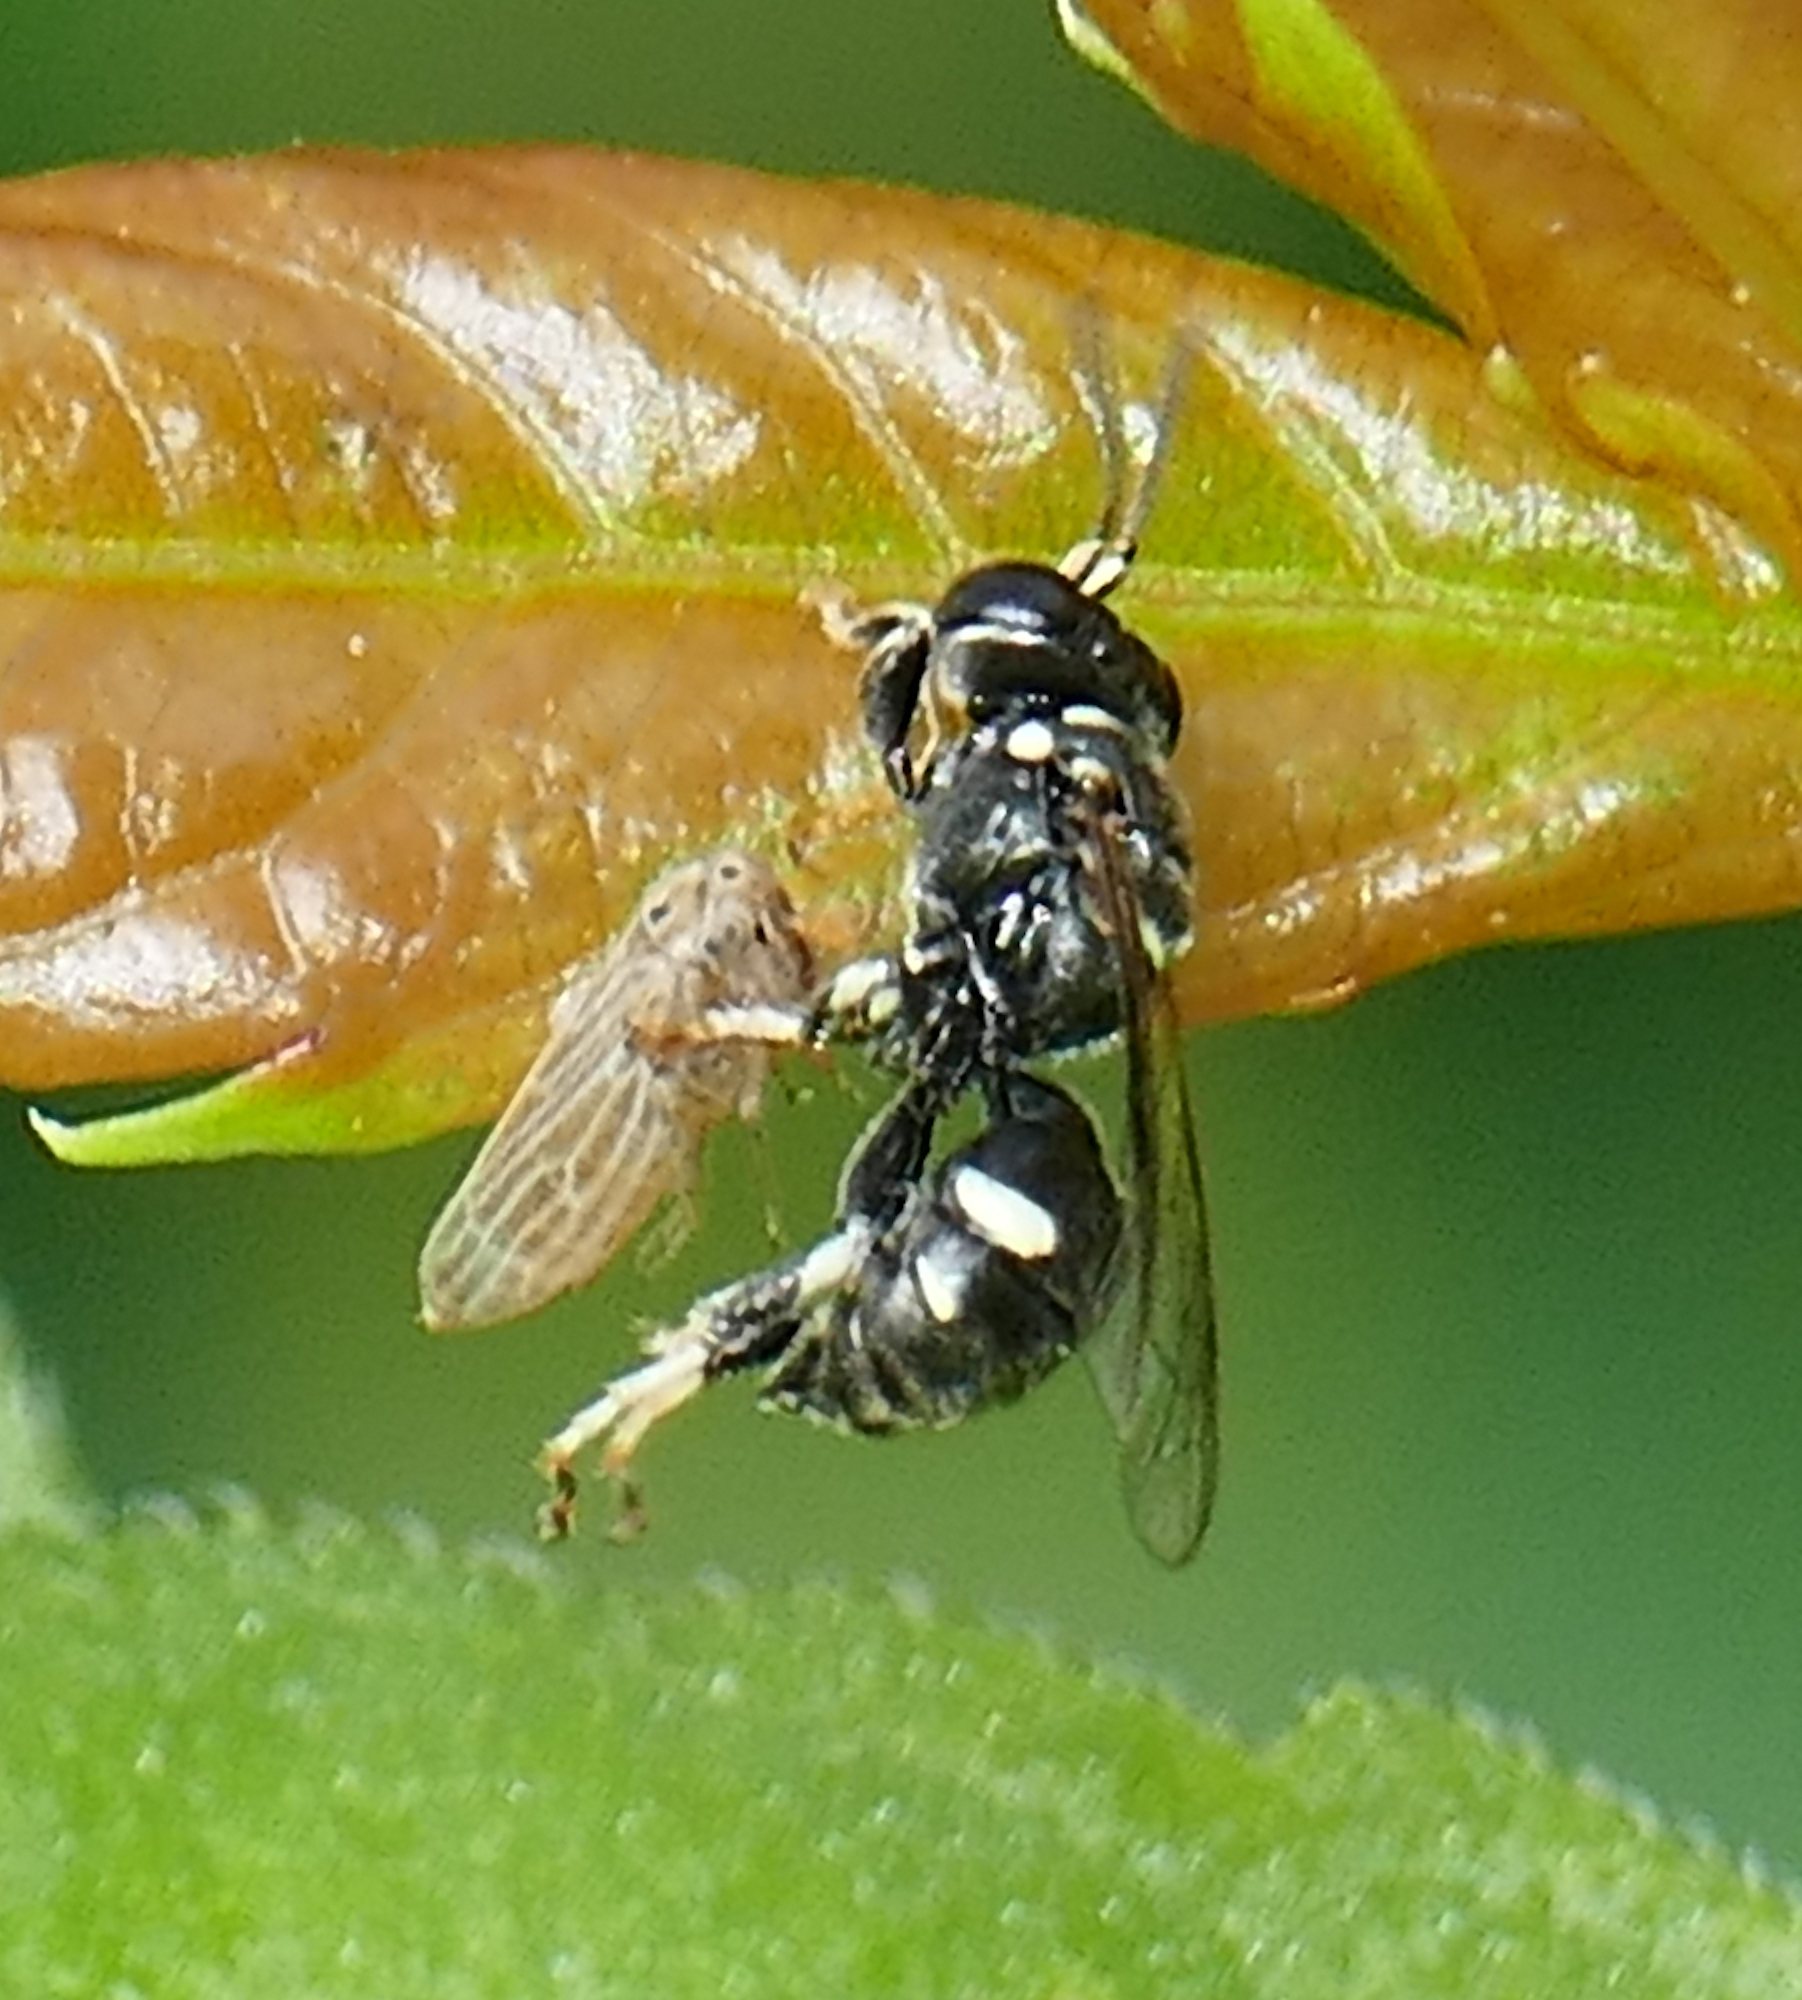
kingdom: Animalia
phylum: Arthropoda
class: Insecta
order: Hymenoptera
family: Crabronidae
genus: Clitemnestra
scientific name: Clitemnestra bipunctata
